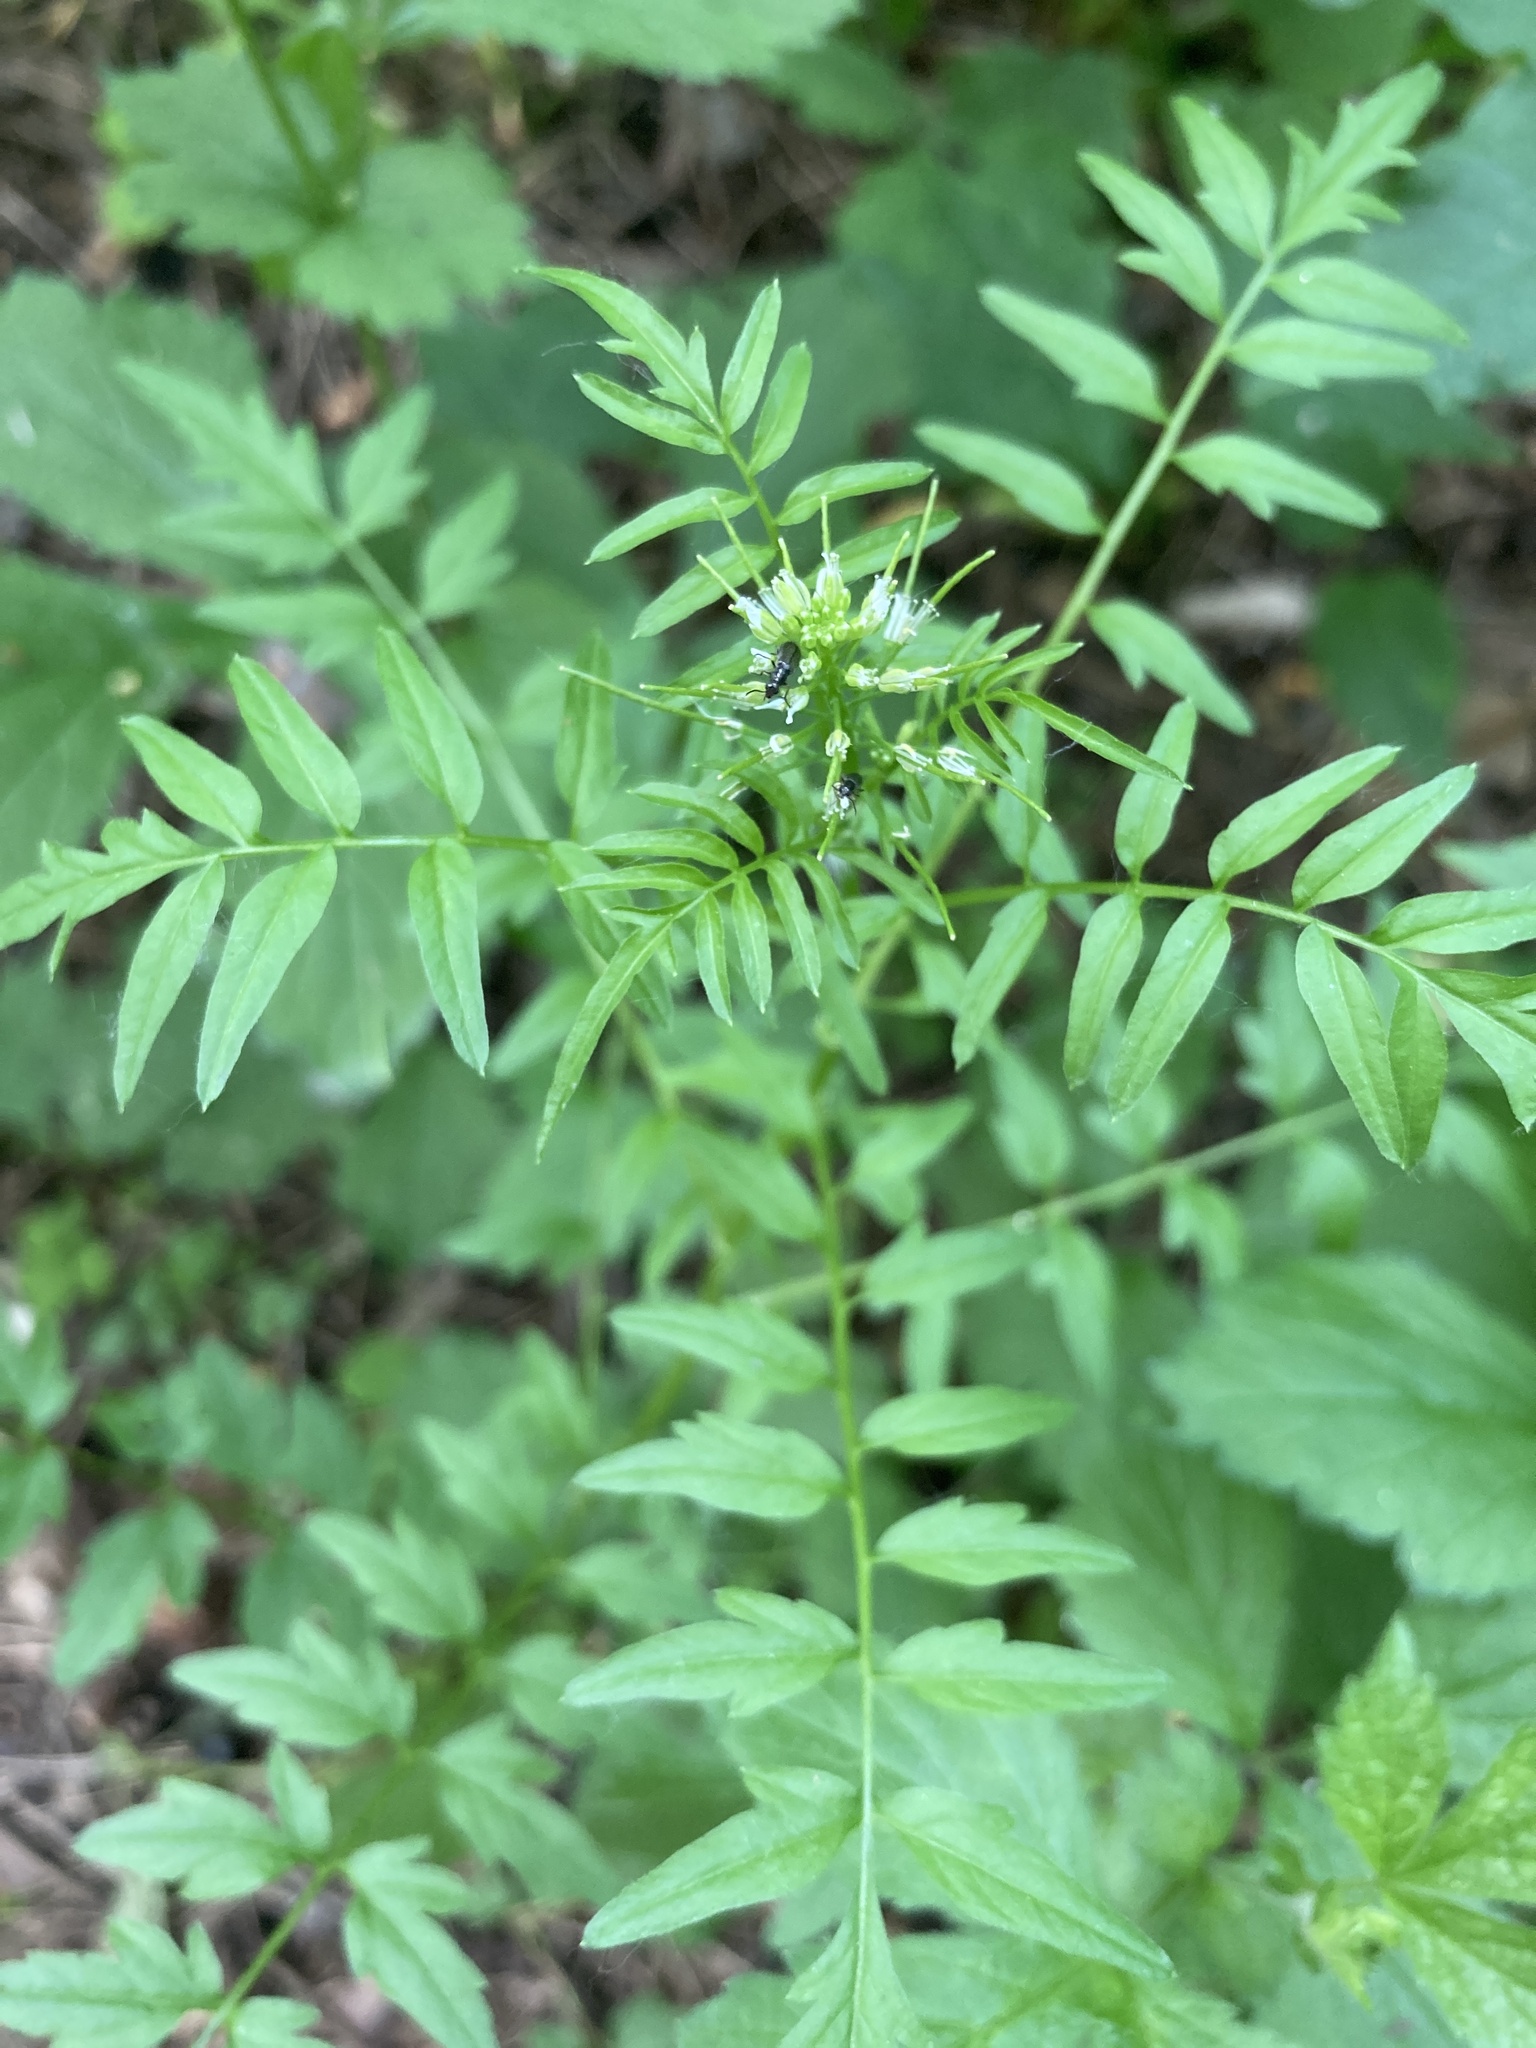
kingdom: Plantae
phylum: Tracheophyta
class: Magnoliopsida
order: Brassicales
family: Brassicaceae
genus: Cardamine
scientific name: Cardamine impatiens
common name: Narrow-leaved bitter-cress
